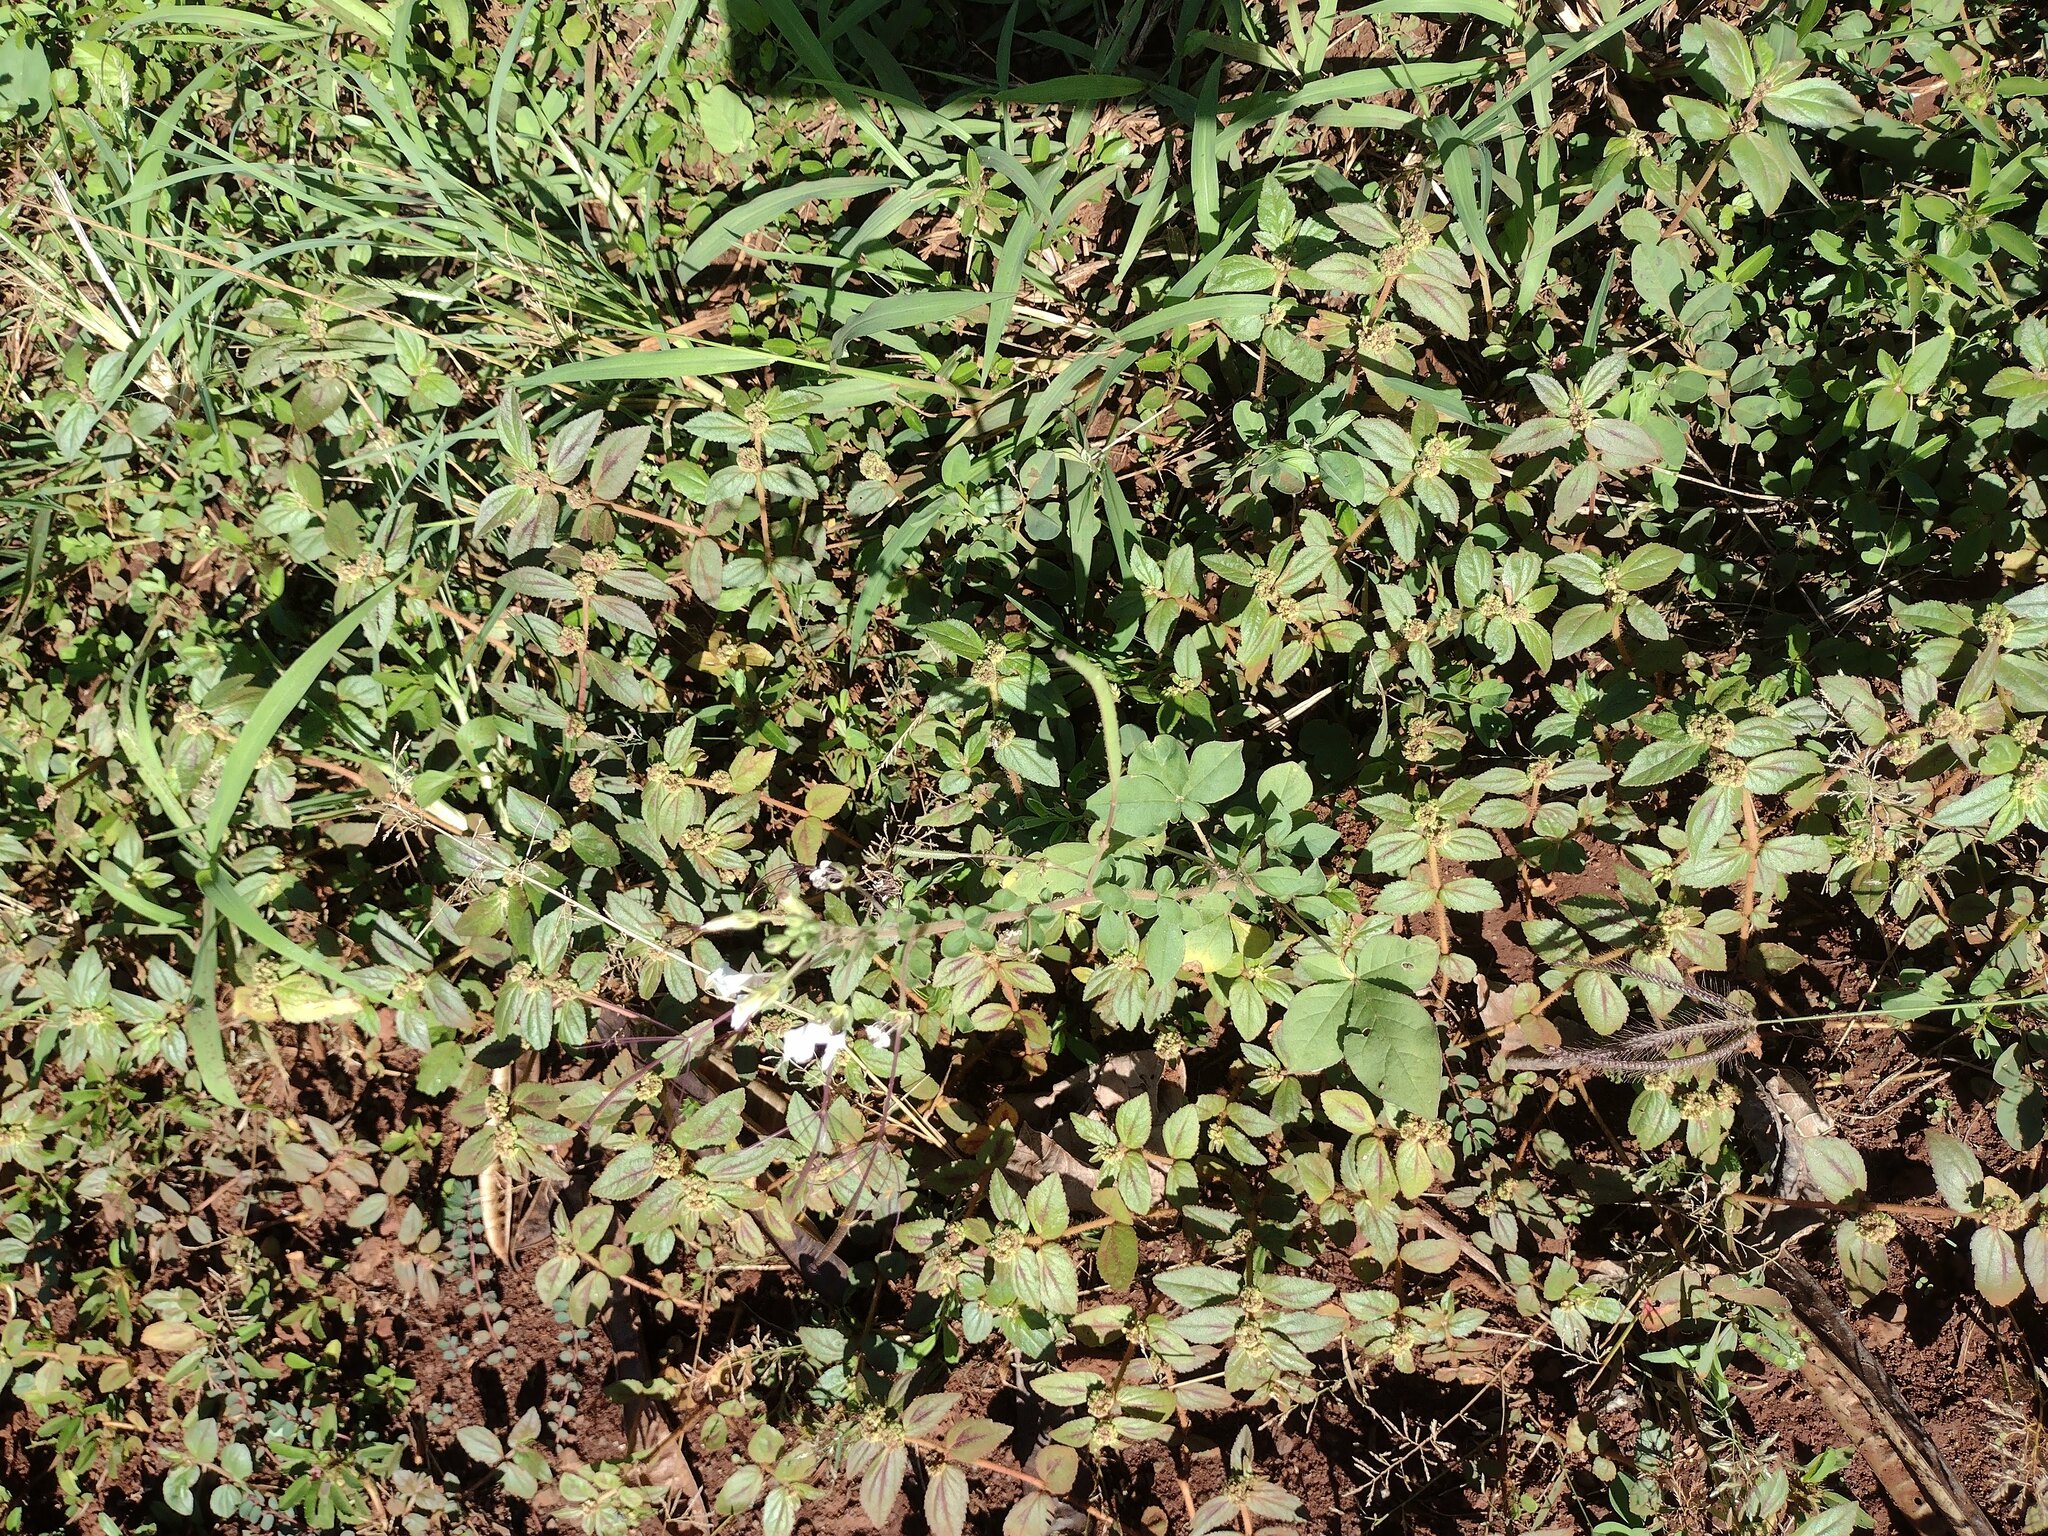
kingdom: Plantae
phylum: Tracheophyta
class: Magnoliopsida
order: Brassicales
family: Cleomaceae
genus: Gynandropsis
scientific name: Gynandropsis gynandra
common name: Spiderwisp
